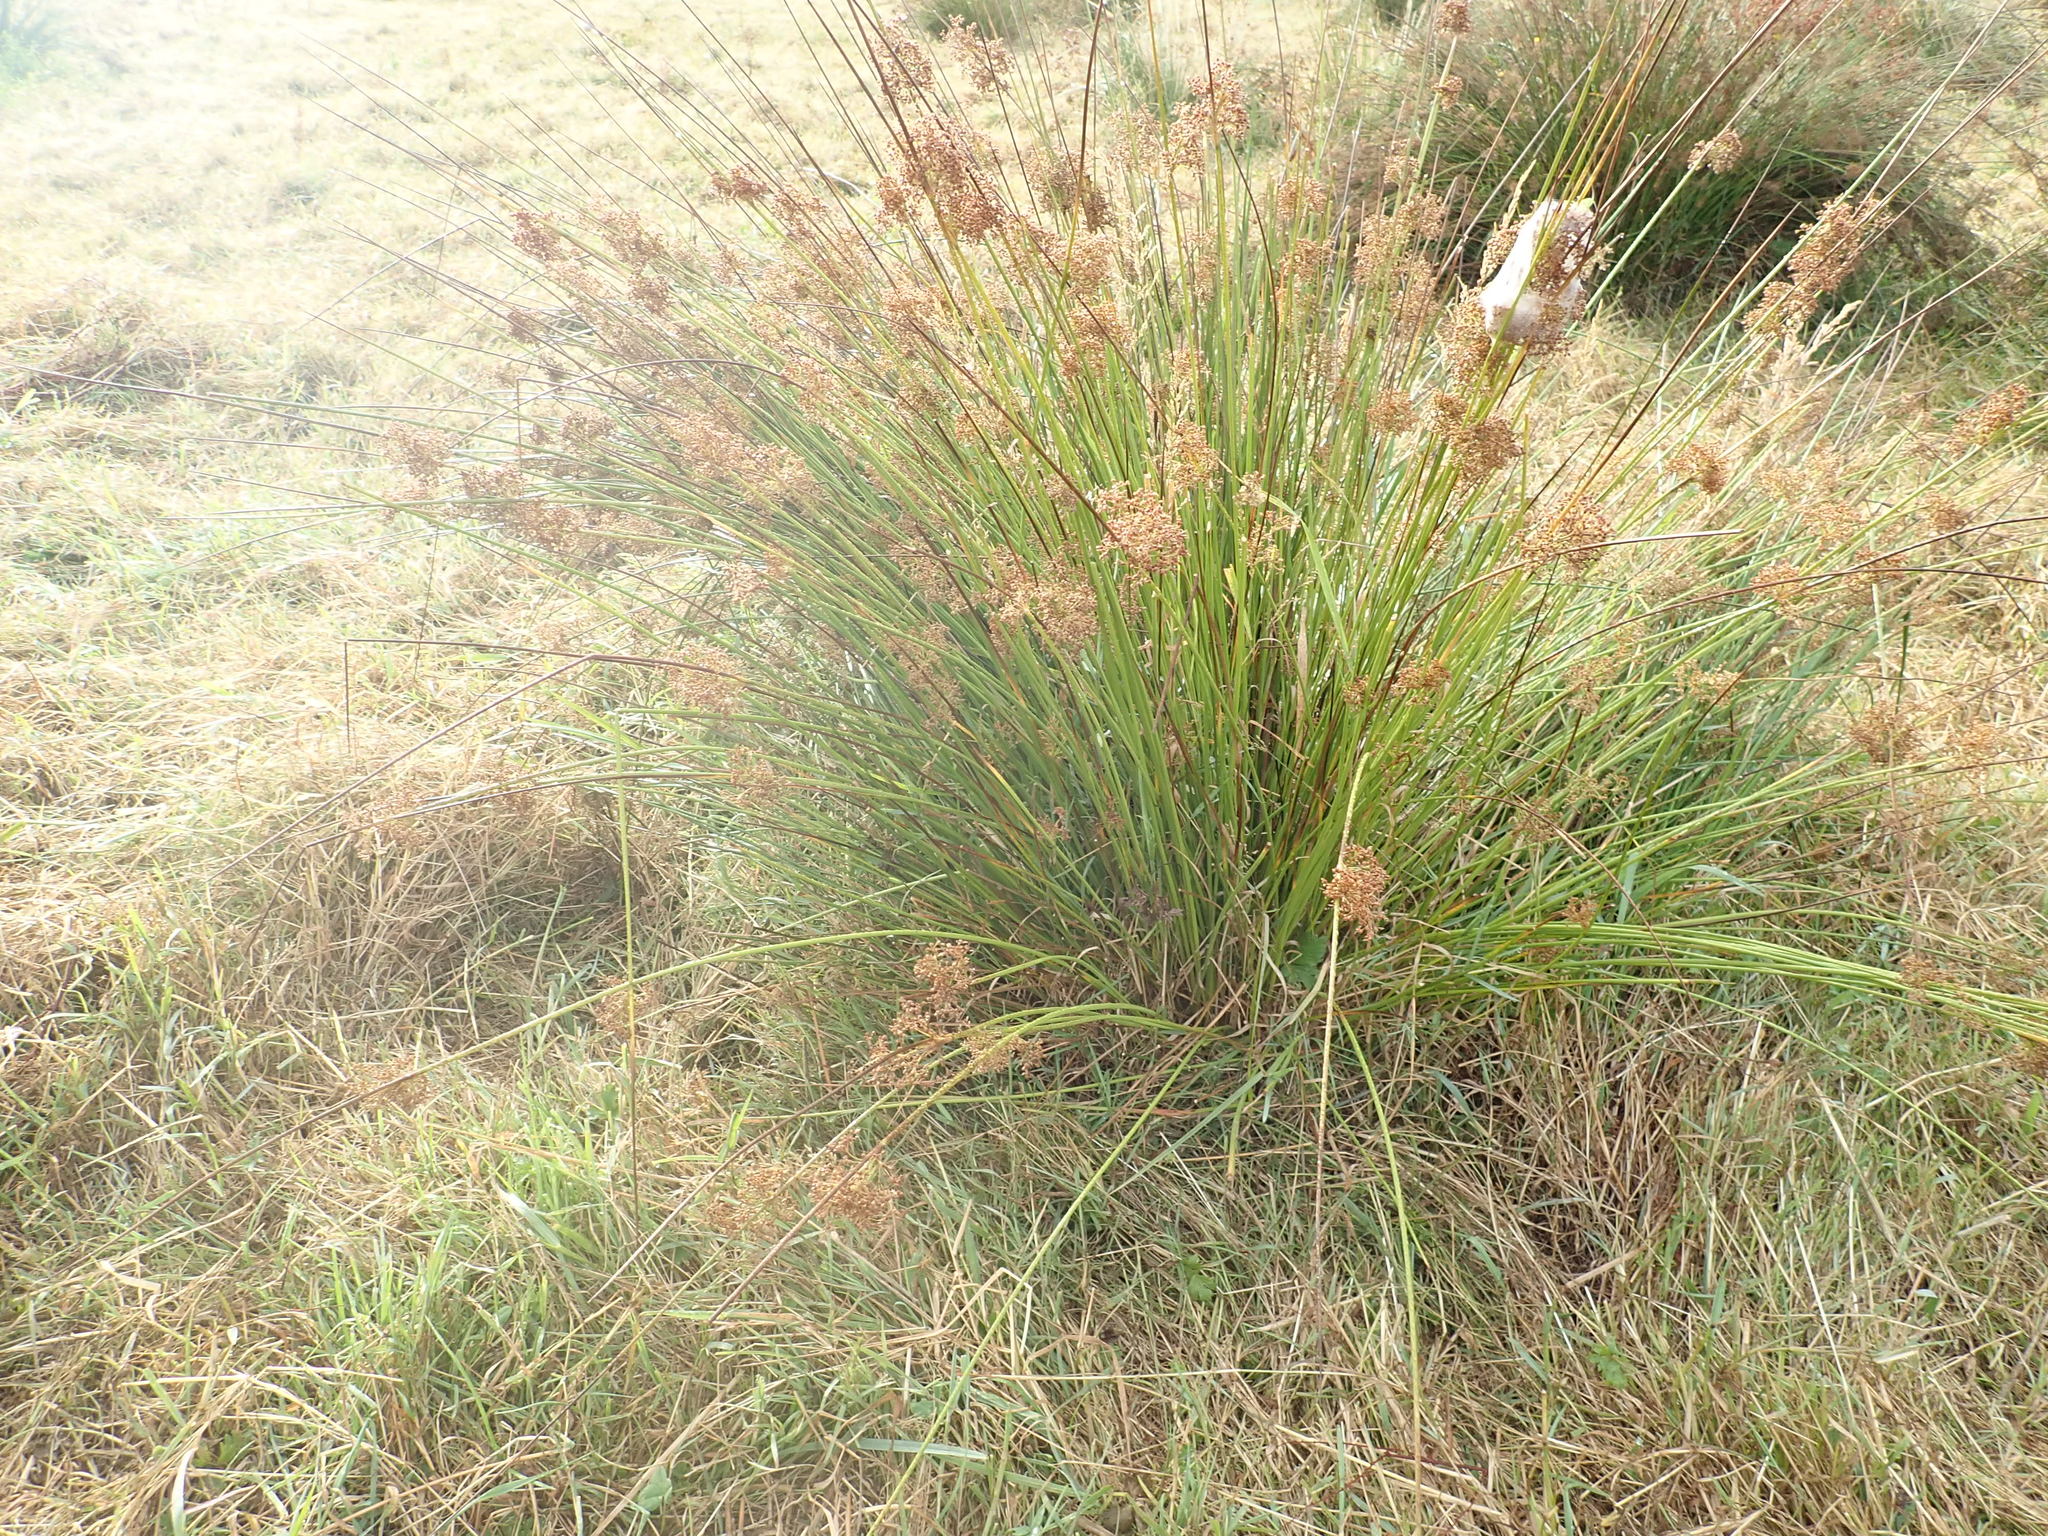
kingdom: Plantae
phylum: Tracheophyta
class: Liliopsida
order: Poales
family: Juncaceae
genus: Juncus
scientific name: Juncus edgariae
